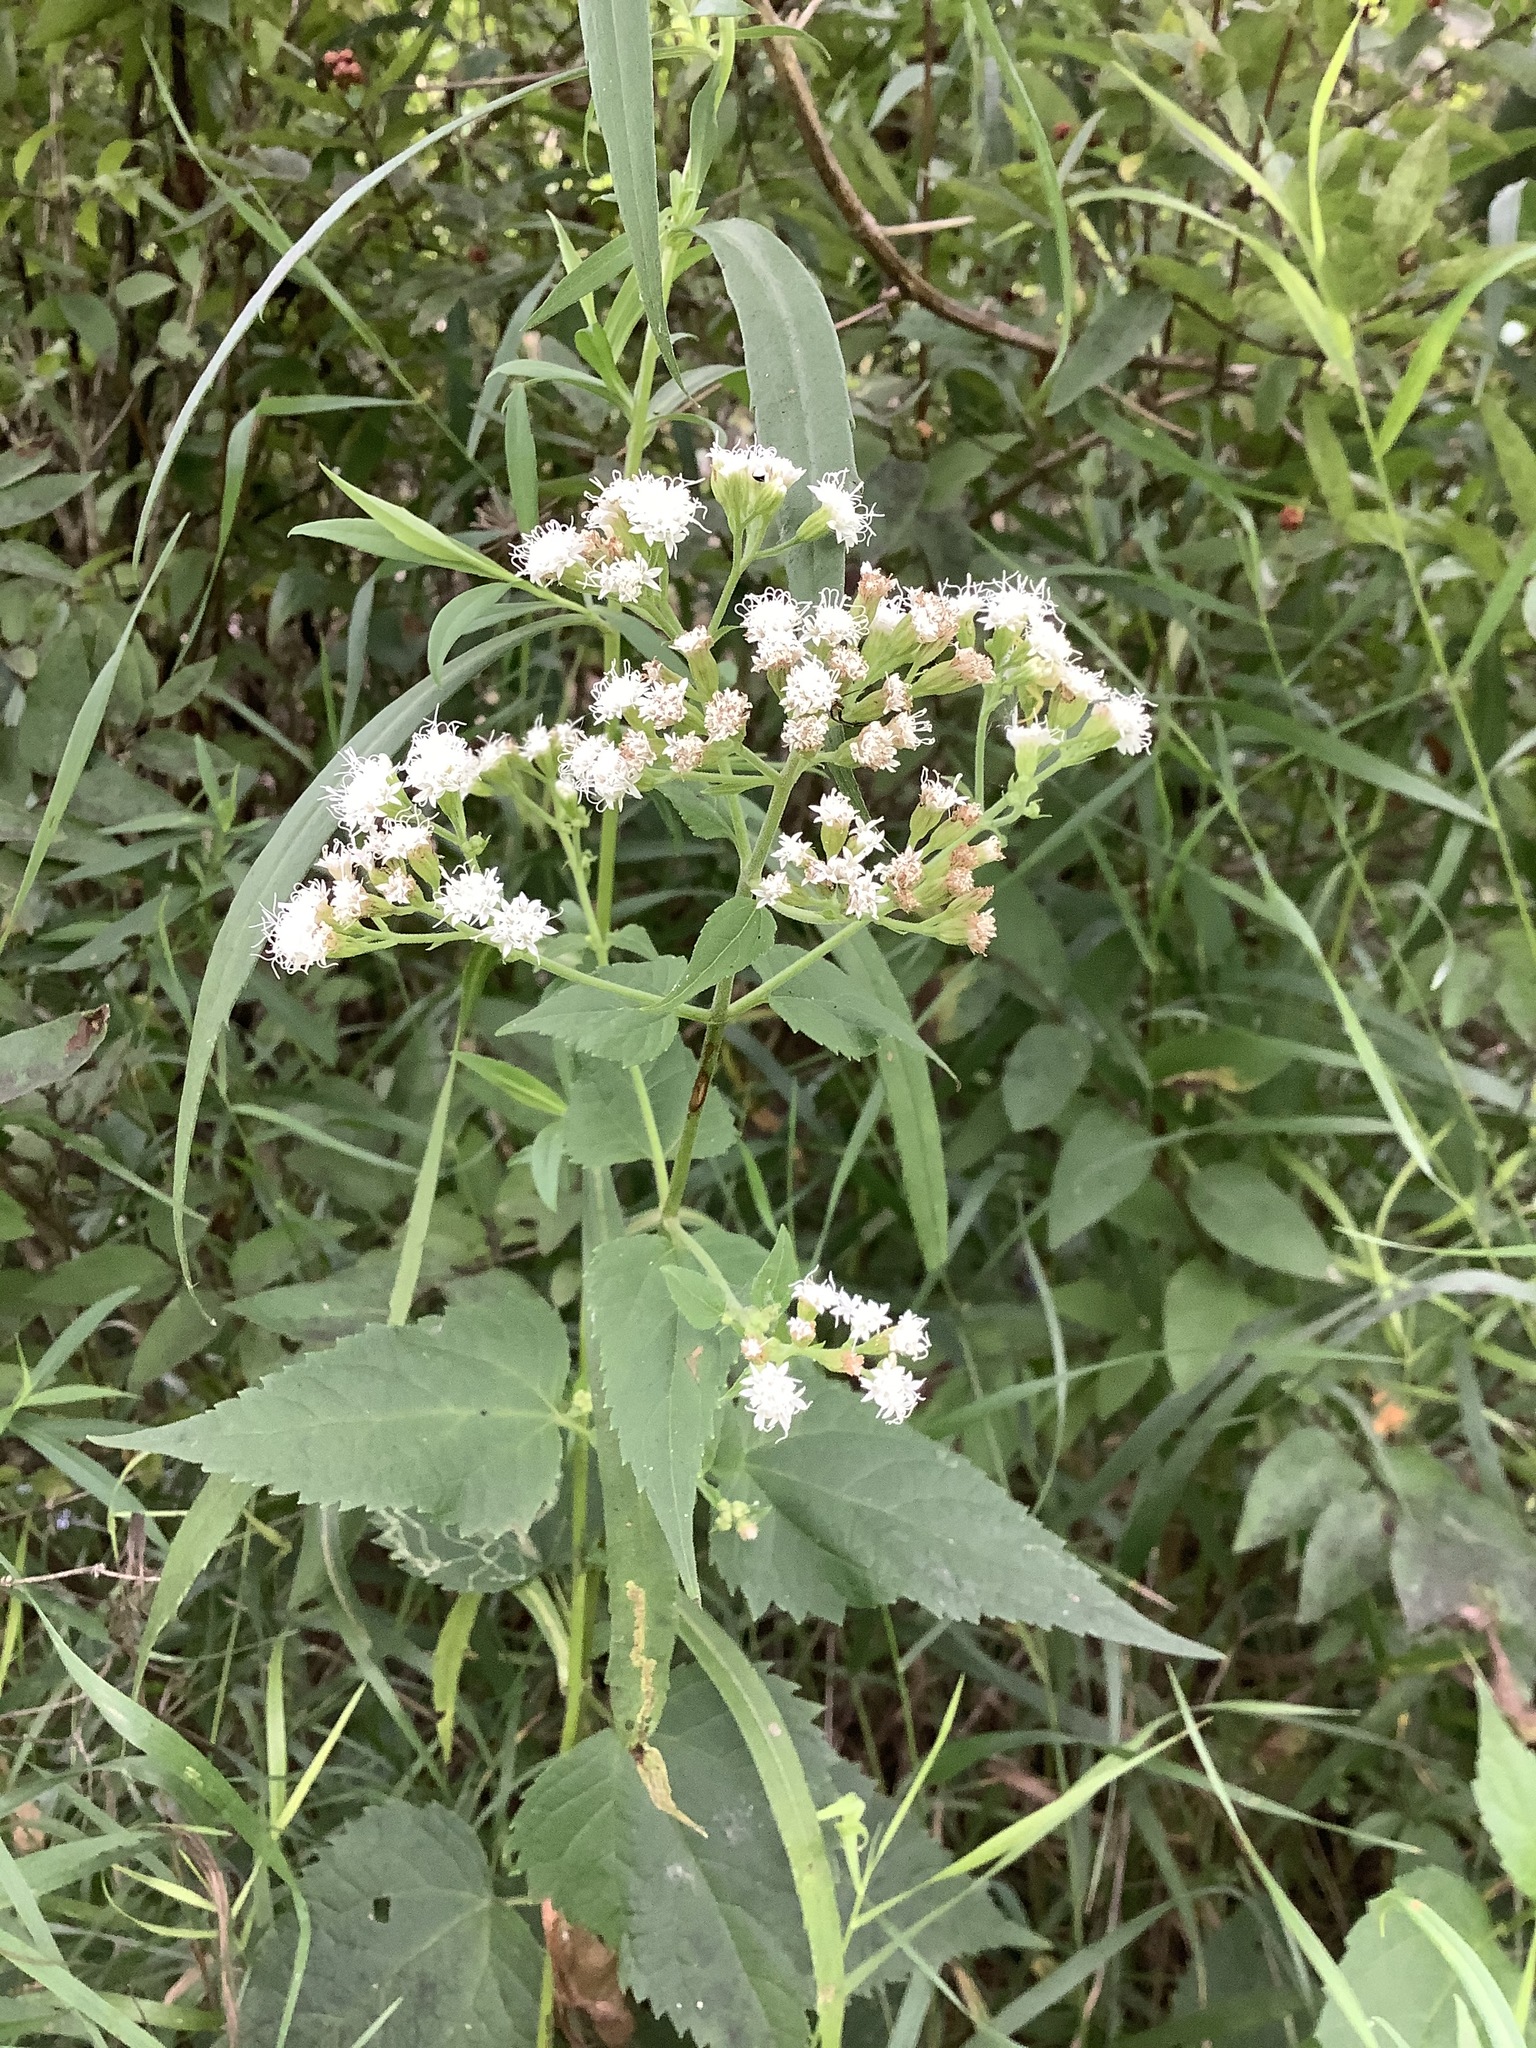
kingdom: Plantae
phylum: Tracheophyta
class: Magnoliopsida
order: Asterales
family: Asteraceae
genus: Ageratina
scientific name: Ageratina altissima
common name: White snakeroot
